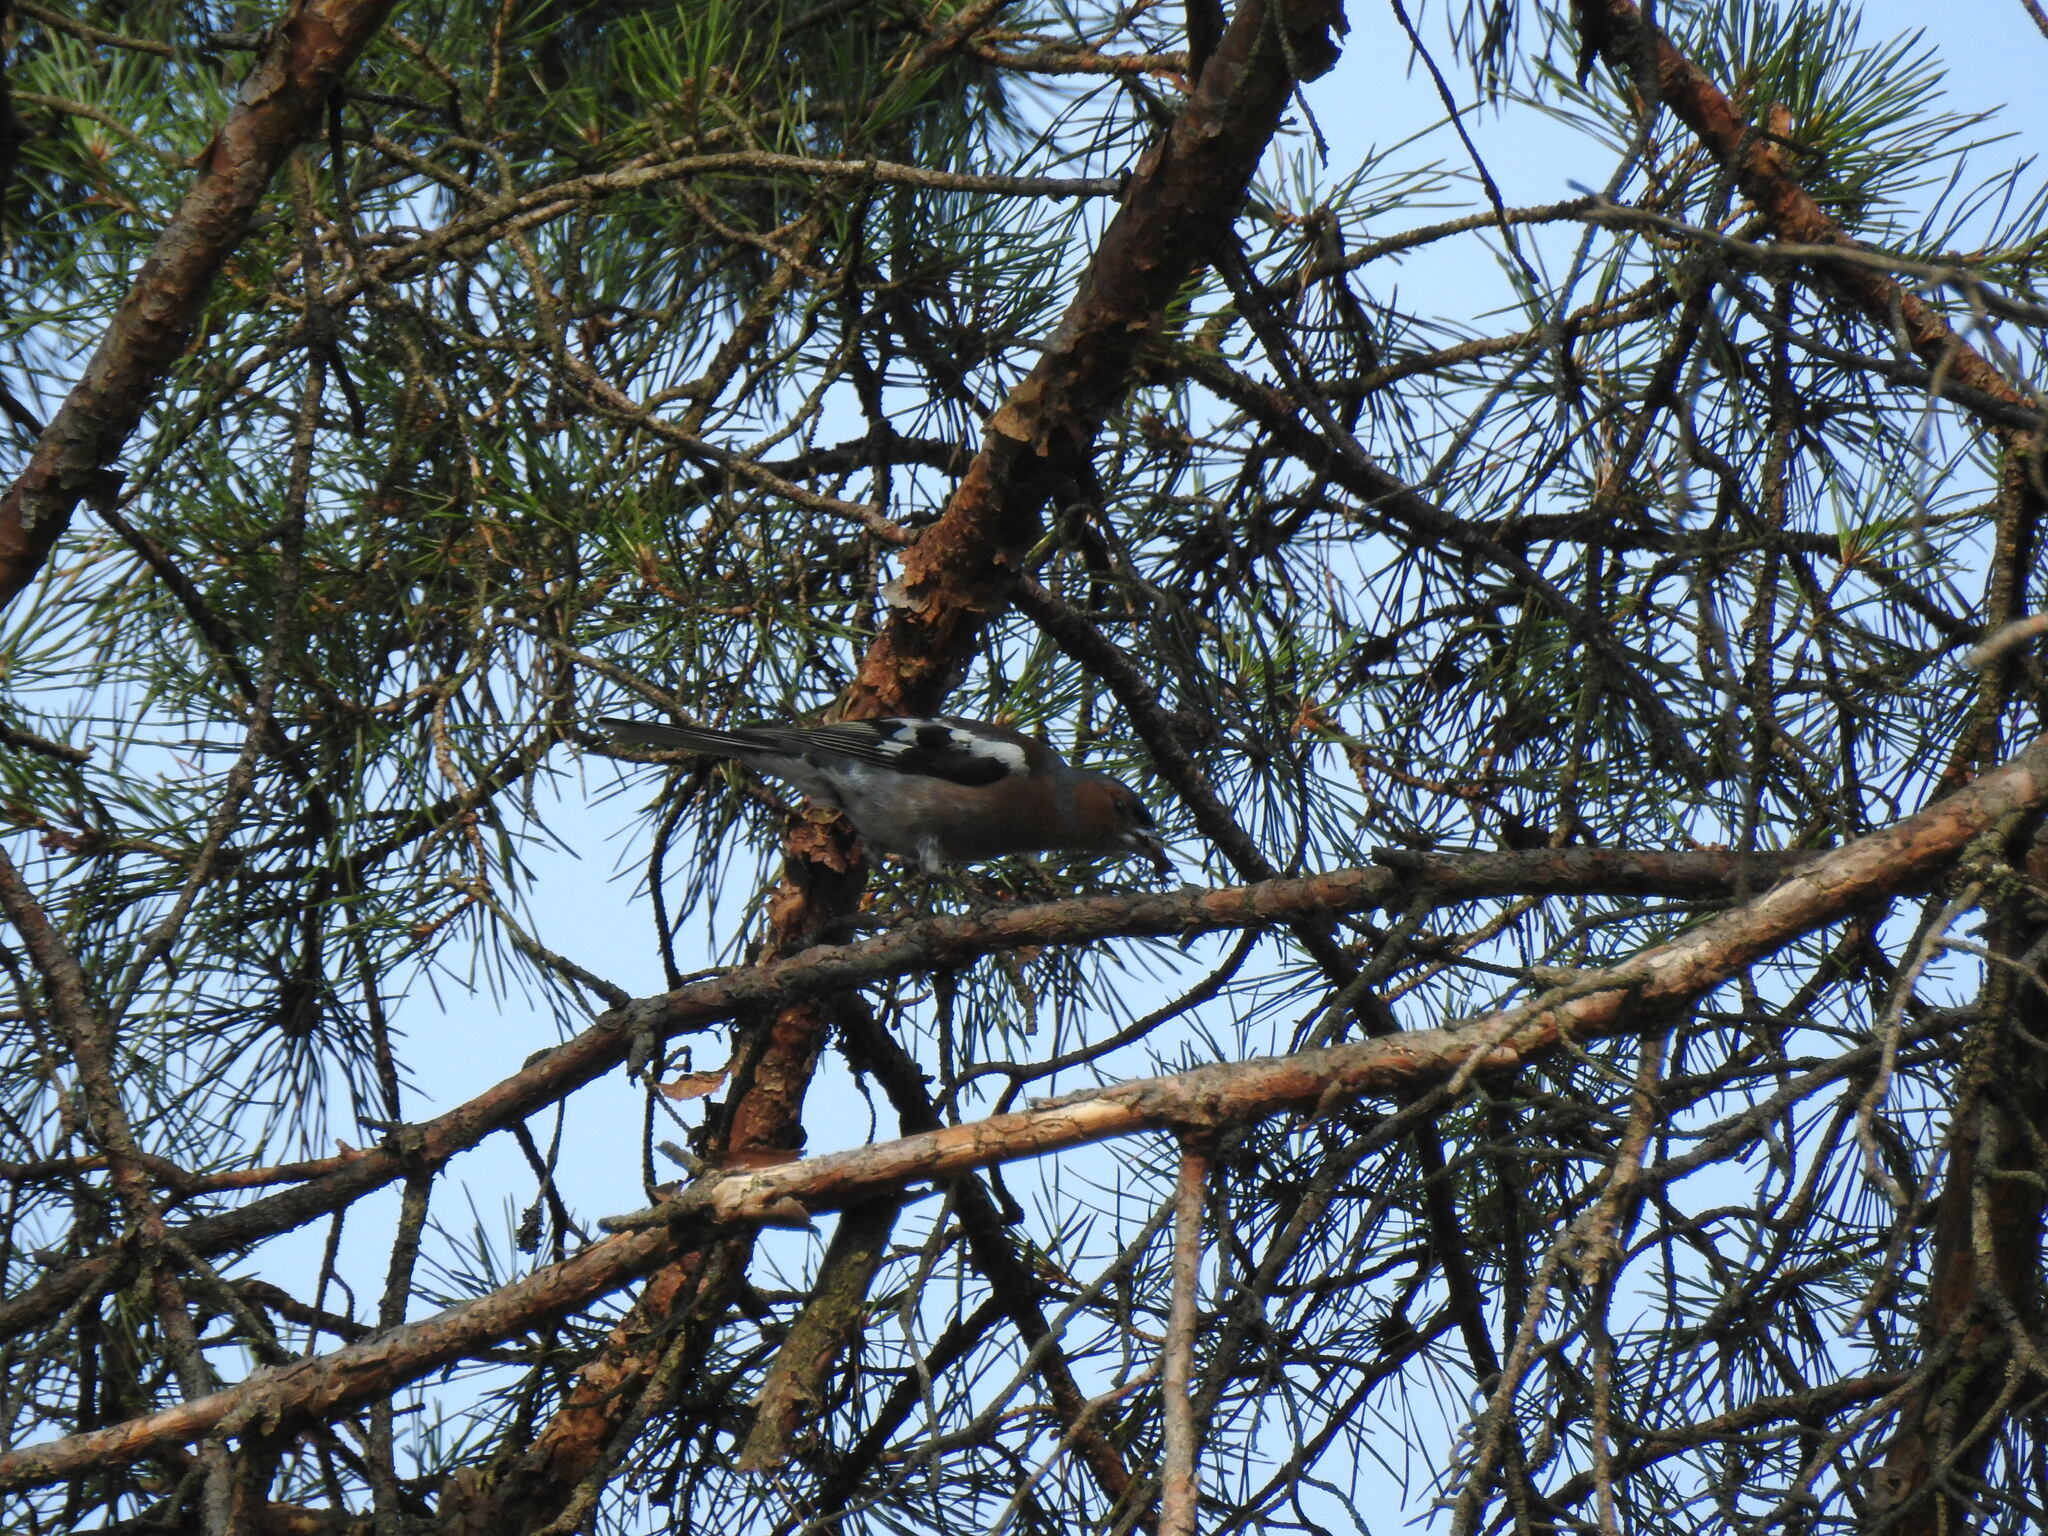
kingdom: Animalia
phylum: Chordata
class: Aves
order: Passeriformes
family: Fringillidae
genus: Fringilla
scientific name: Fringilla coelebs
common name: Common chaffinch
